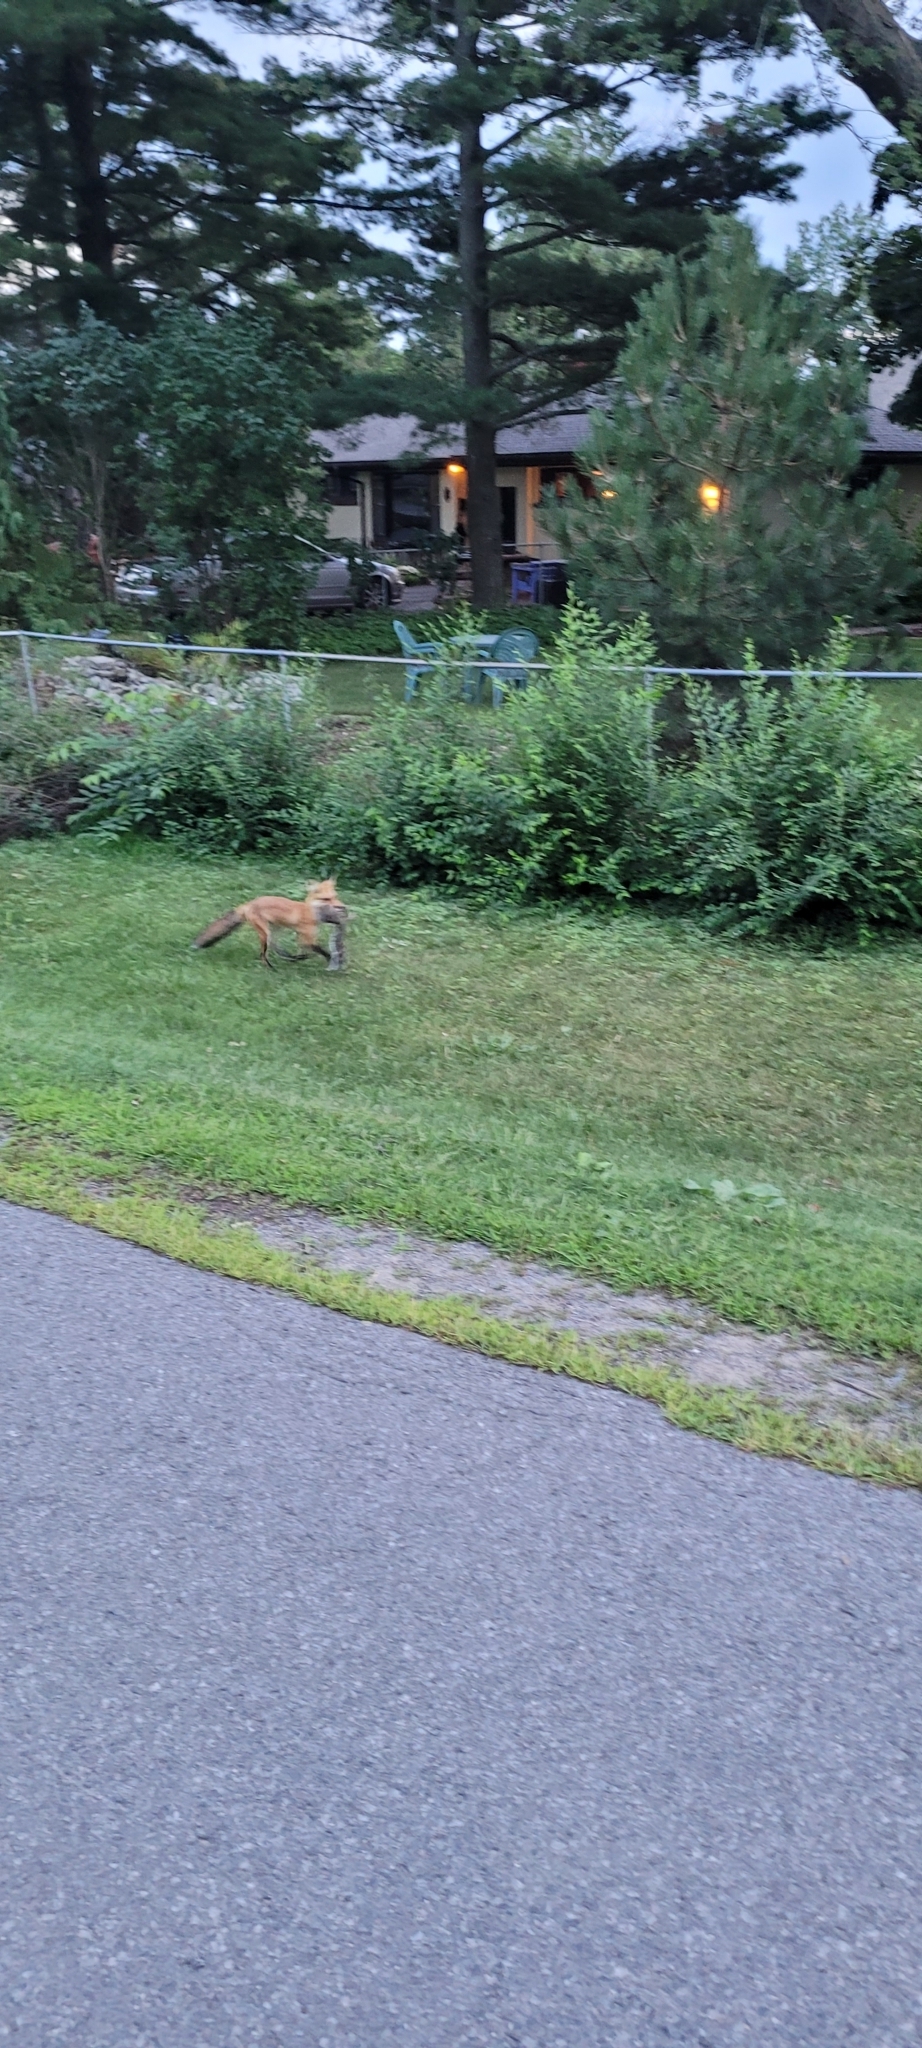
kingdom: Animalia
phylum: Chordata
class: Mammalia
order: Carnivora
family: Canidae
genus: Vulpes
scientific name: Vulpes vulpes
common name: Red fox
